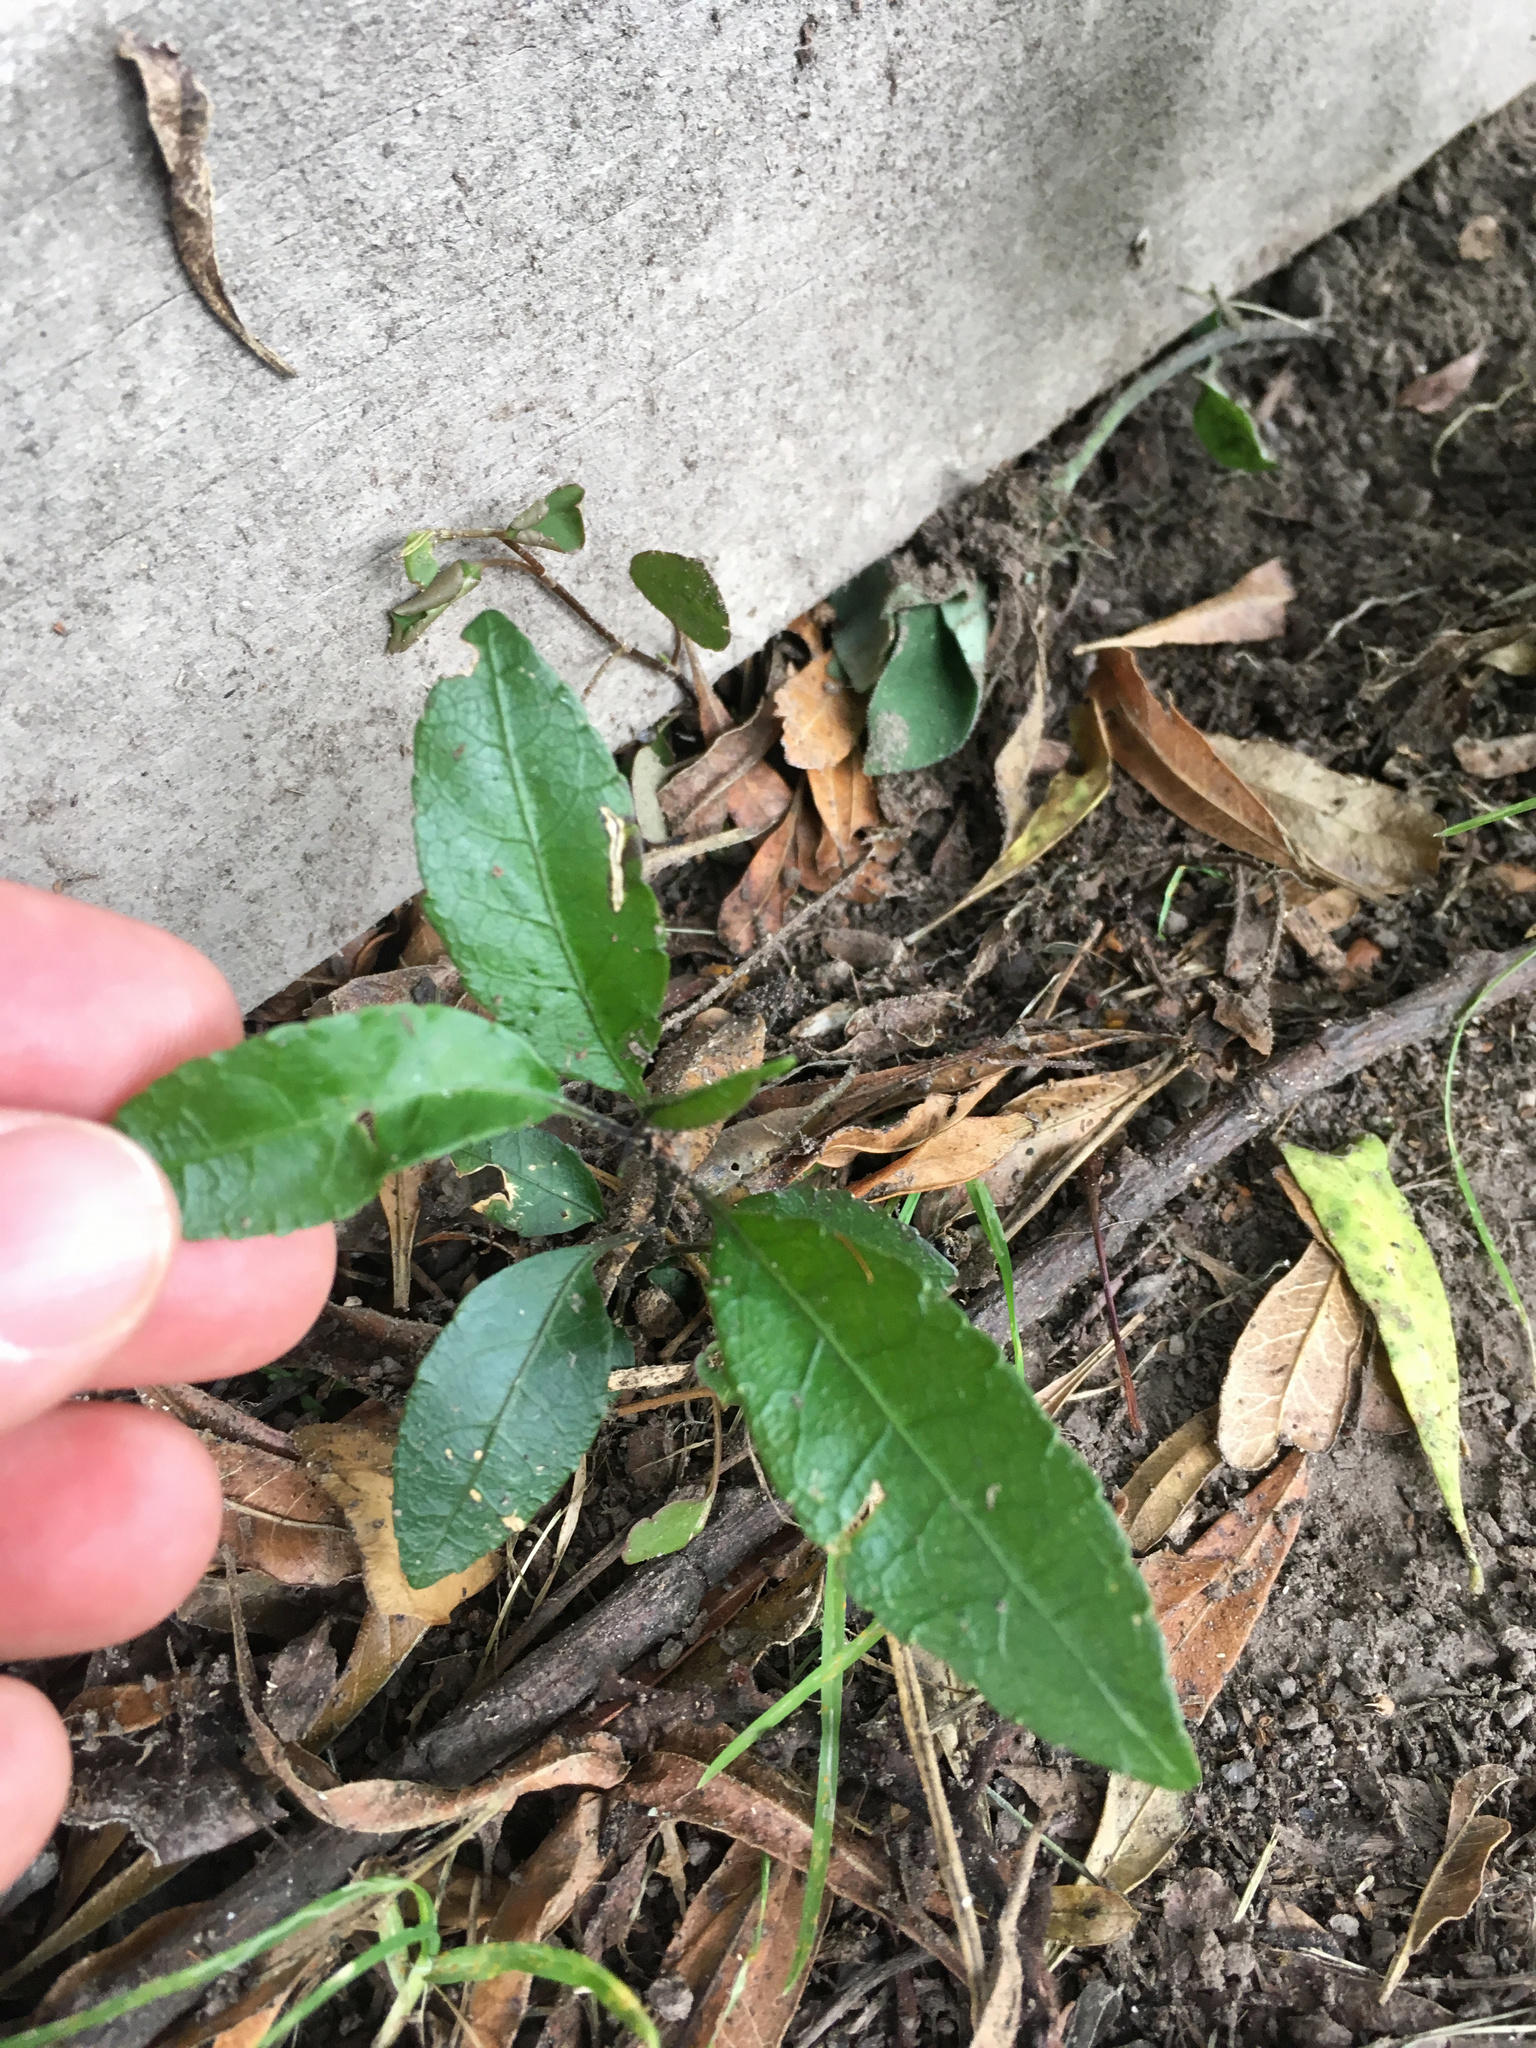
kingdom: Plantae
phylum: Tracheophyta
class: Magnoliopsida
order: Malpighiales
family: Violaceae
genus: Melicytus
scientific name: Melicytus ramiflorus
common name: Mahoe
